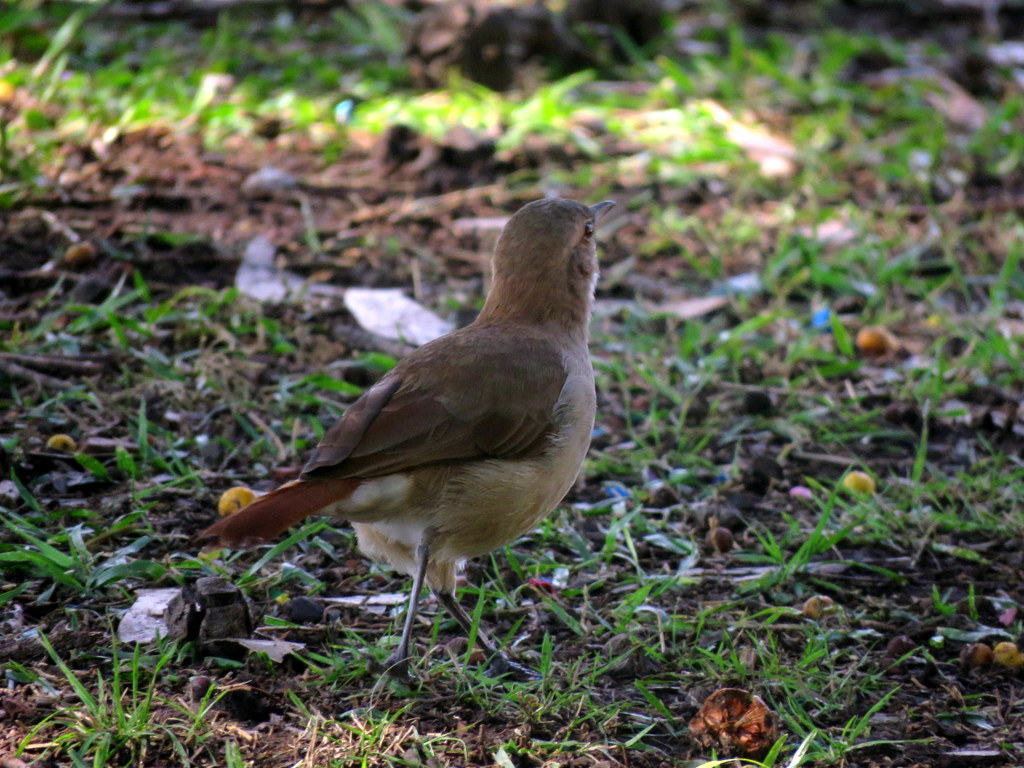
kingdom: Animalia
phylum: Chordata
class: Aves
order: Passeriformes
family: Furnariidae
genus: Furnarius
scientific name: Furnarius rufus
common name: Rufous hornero
